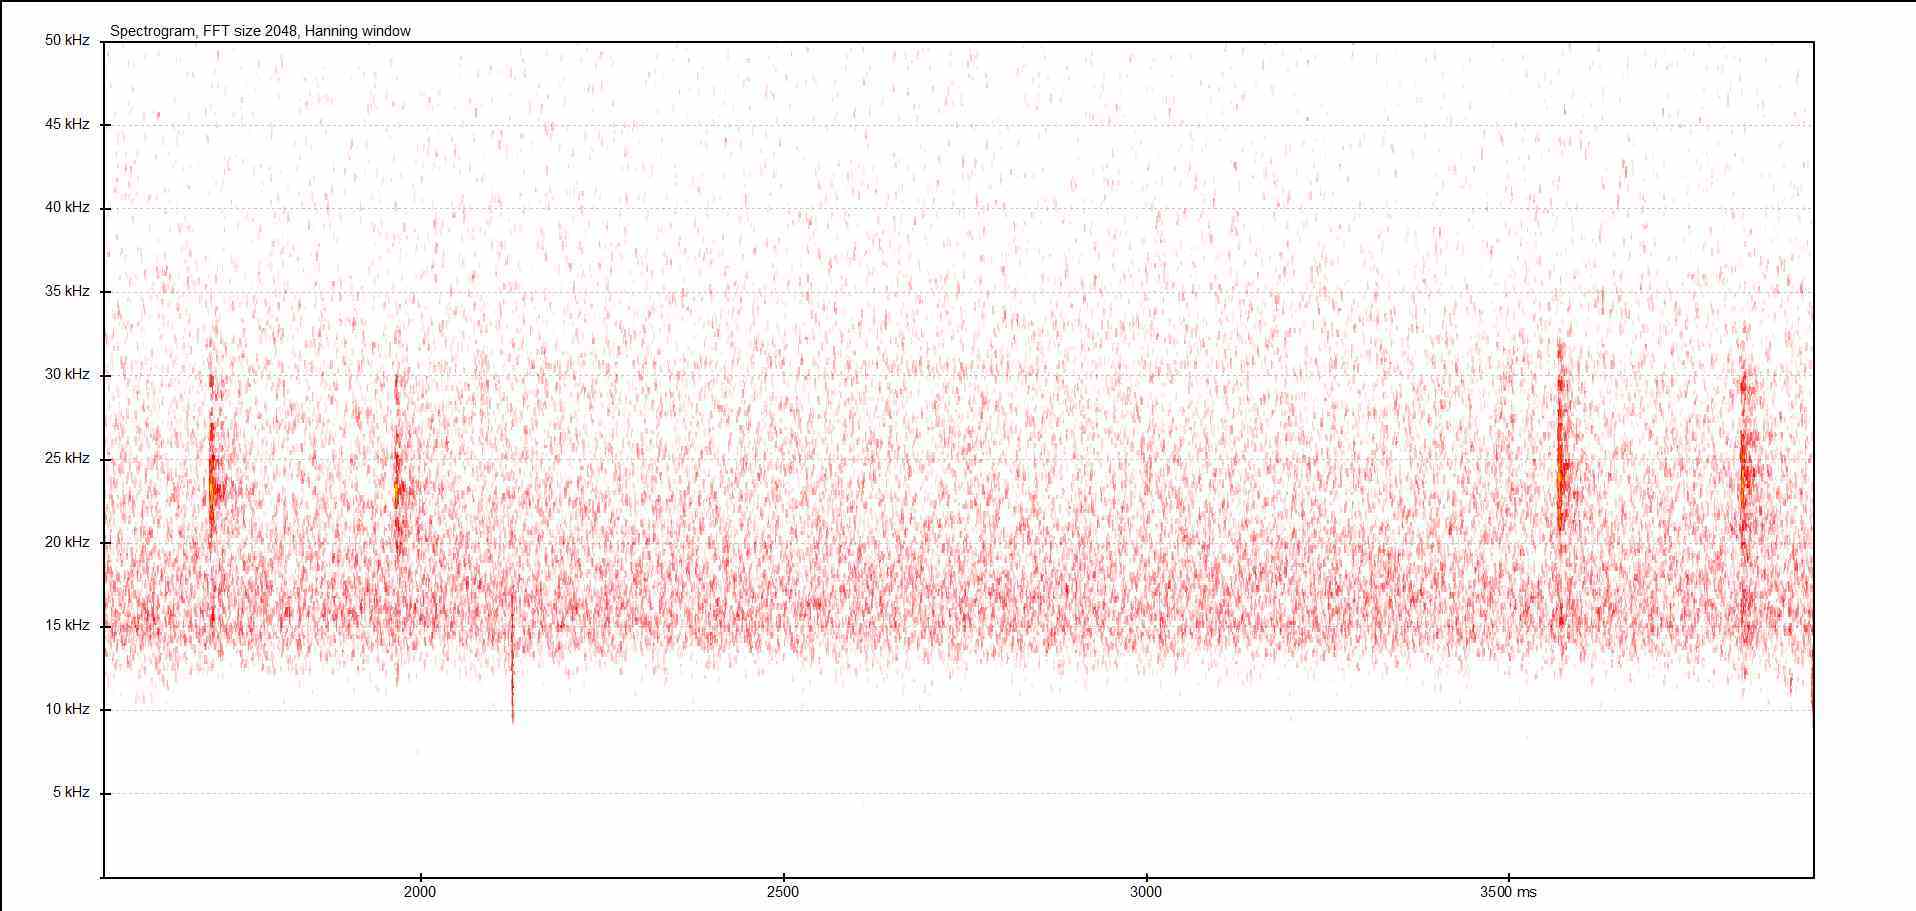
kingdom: Animalia
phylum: Arthropoda
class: Insecta
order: Orthoptera
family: Tettigoniidae
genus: Barbitistes
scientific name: Barbitistes serricauda
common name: Saw-tailed bush-cricket
